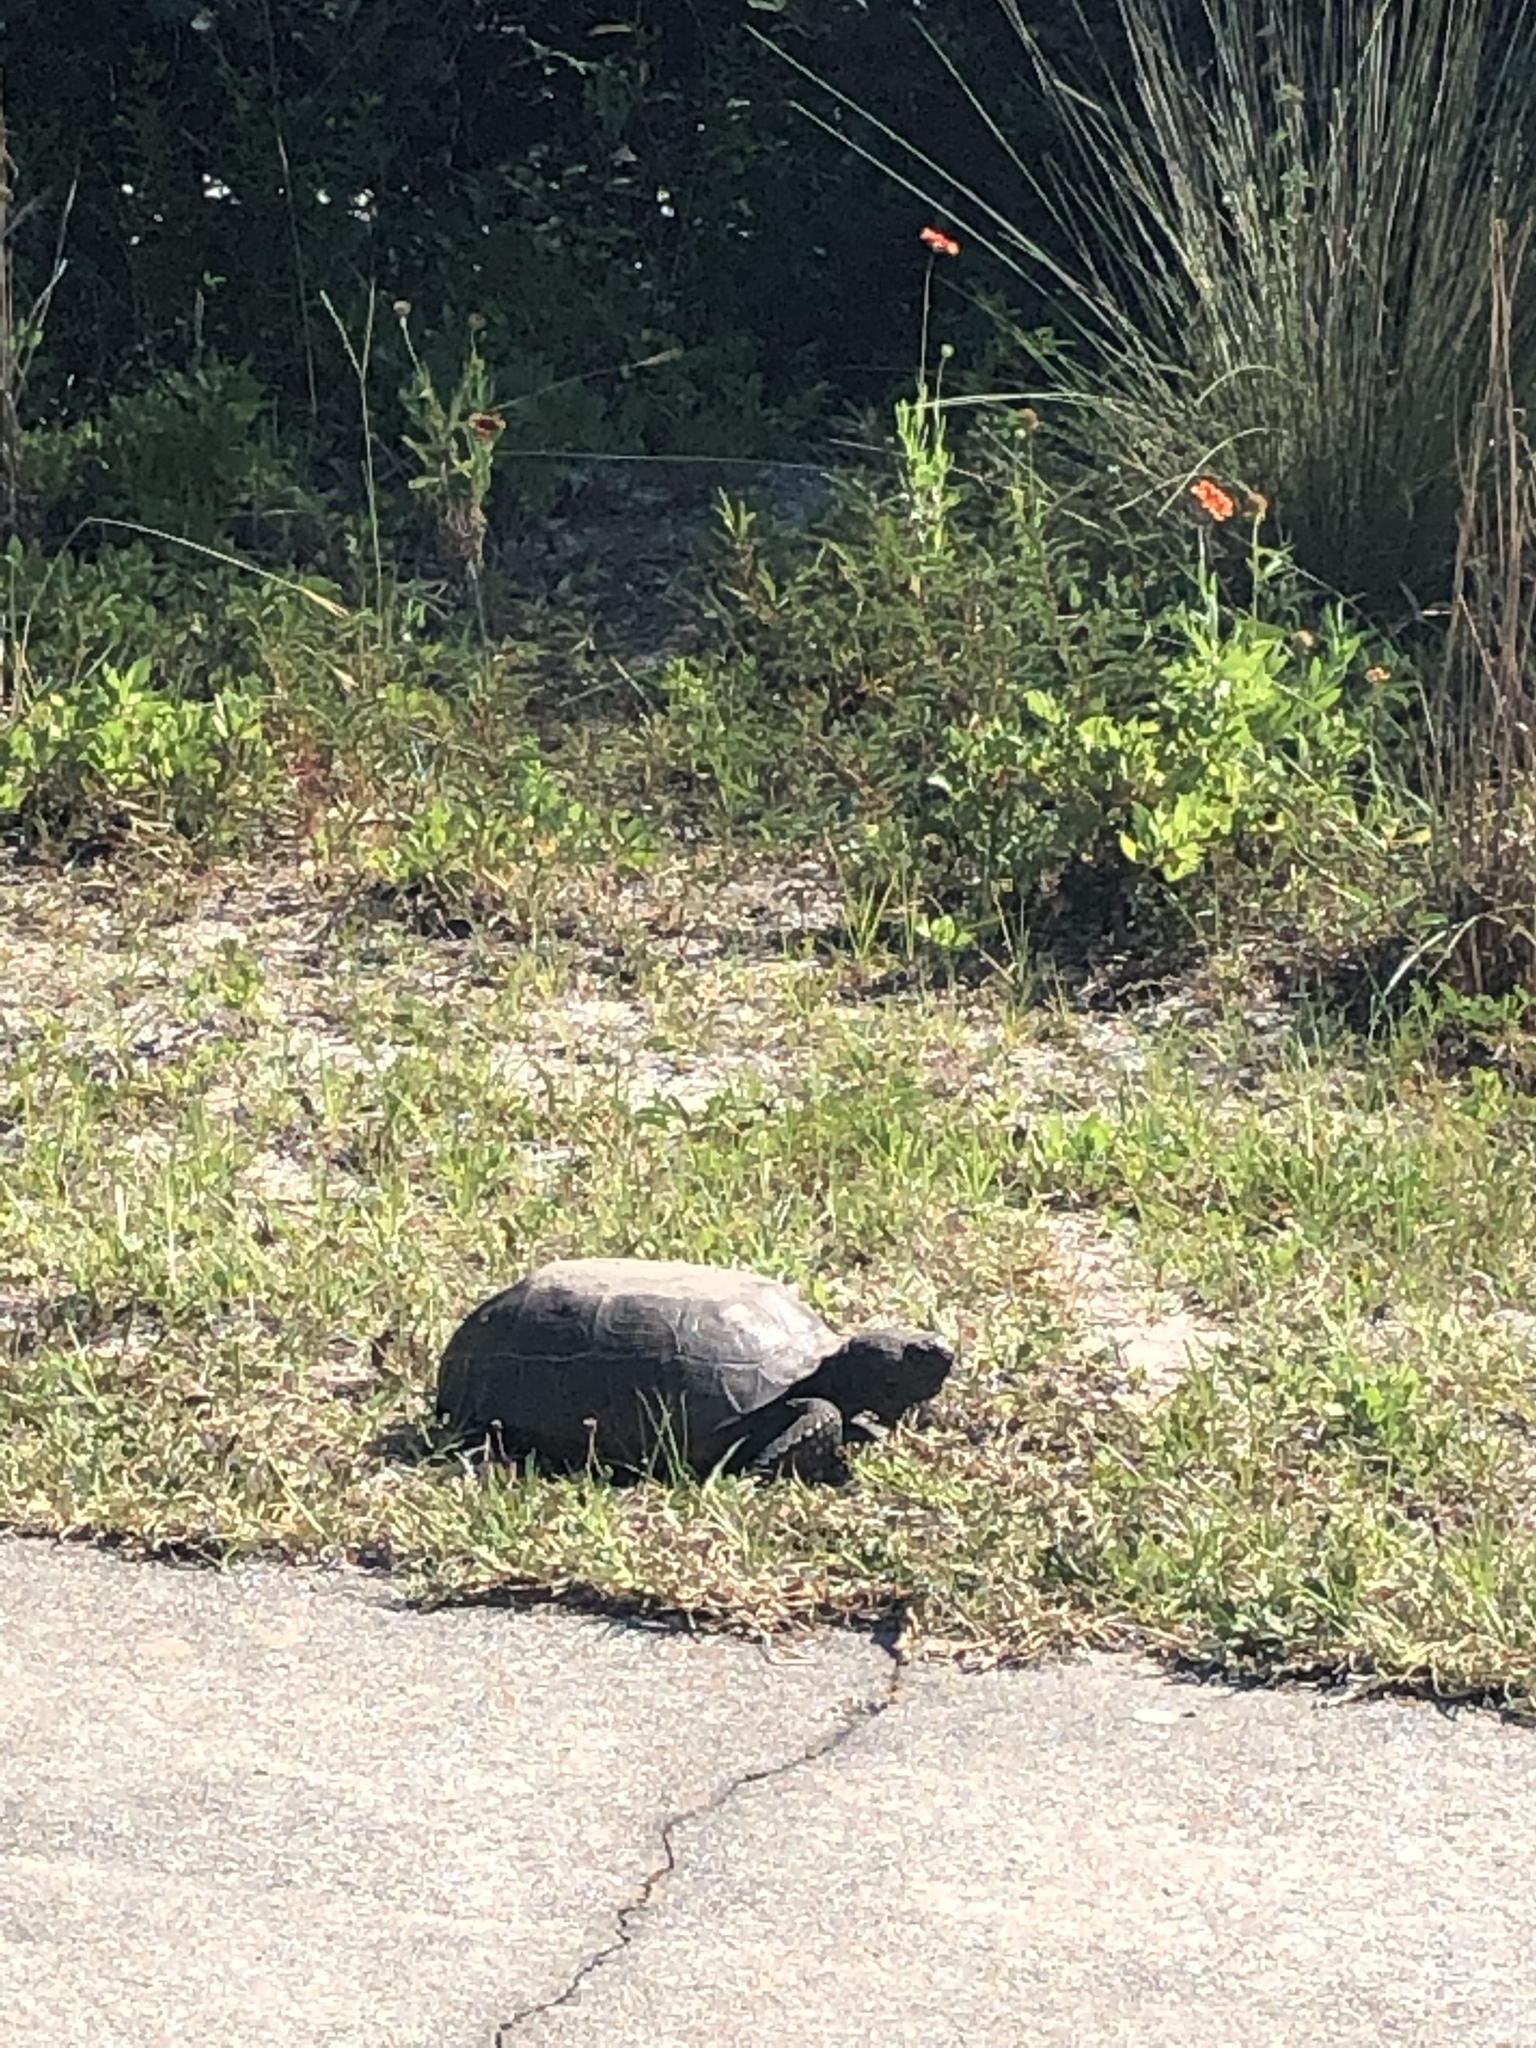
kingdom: Animalia
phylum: Chordata
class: Testudines
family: Testudinidae
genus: Gopherus
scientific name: Gopherus polyphemus
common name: Florida gopher tortoise
